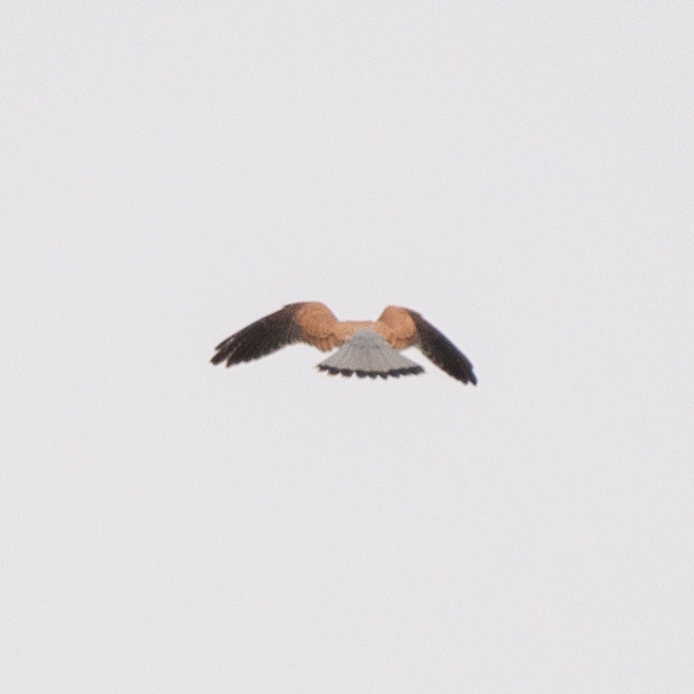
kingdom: Animalia
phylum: Chordata
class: Aves
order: Falconiformes
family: Falconidae
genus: Falco
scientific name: Falco tinnunculus
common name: Common kestrel
